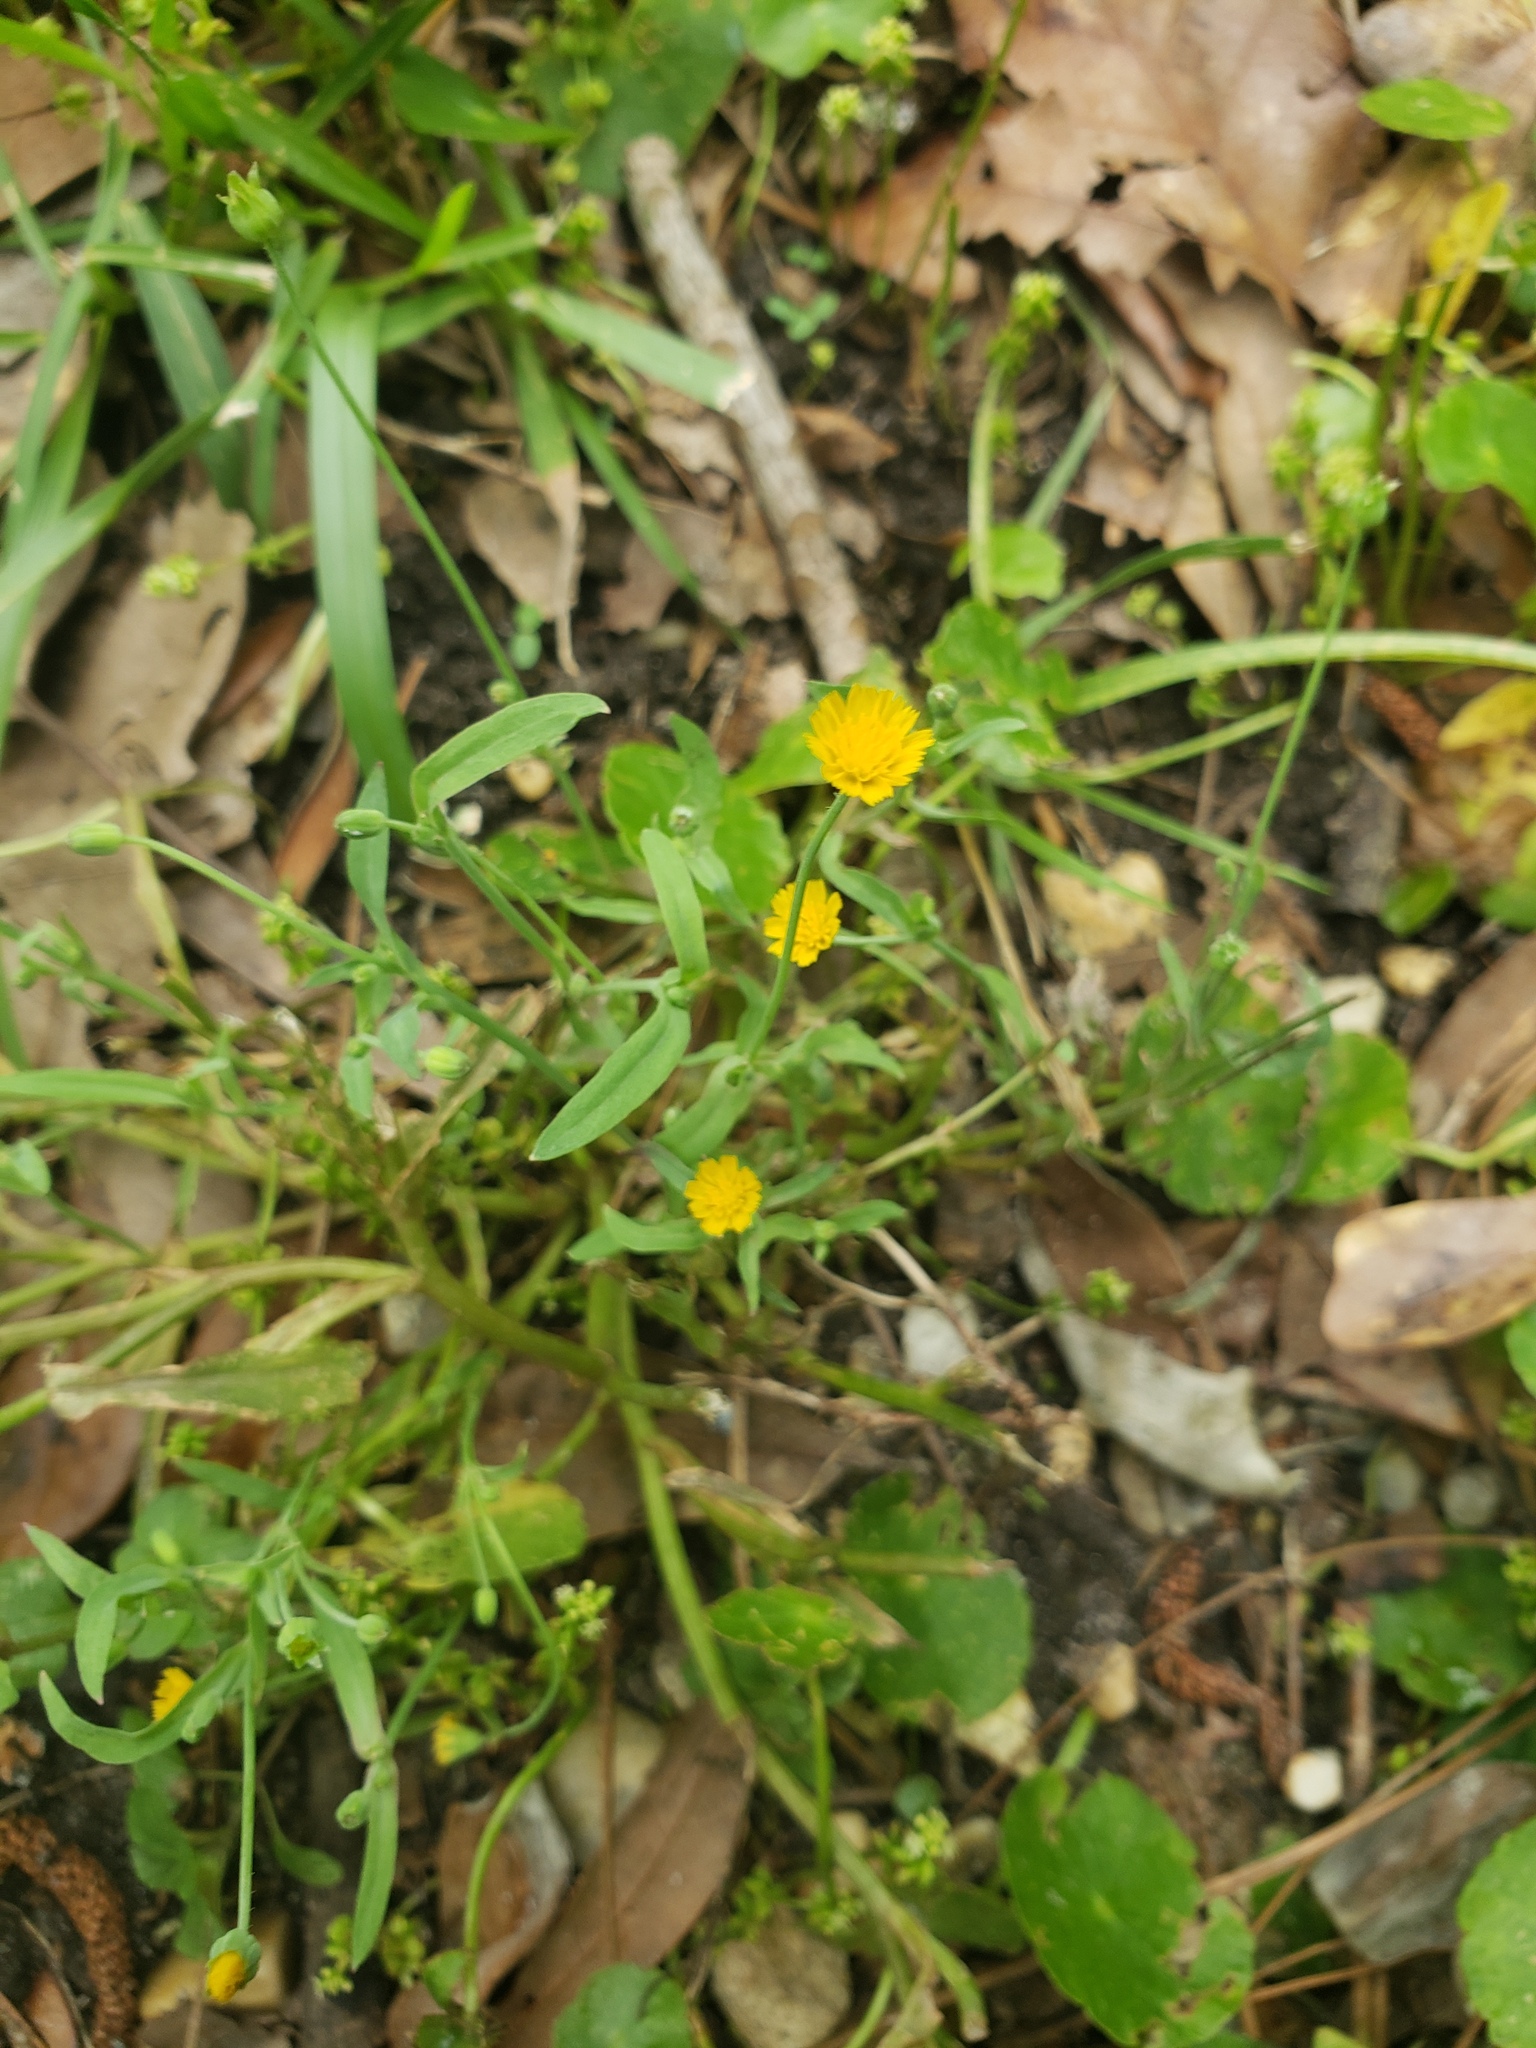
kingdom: Plantae
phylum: Tracheophyta
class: Magnoliopsida
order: Asterales
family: Asteraceae
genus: Krigia
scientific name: Krigia cespitosa
